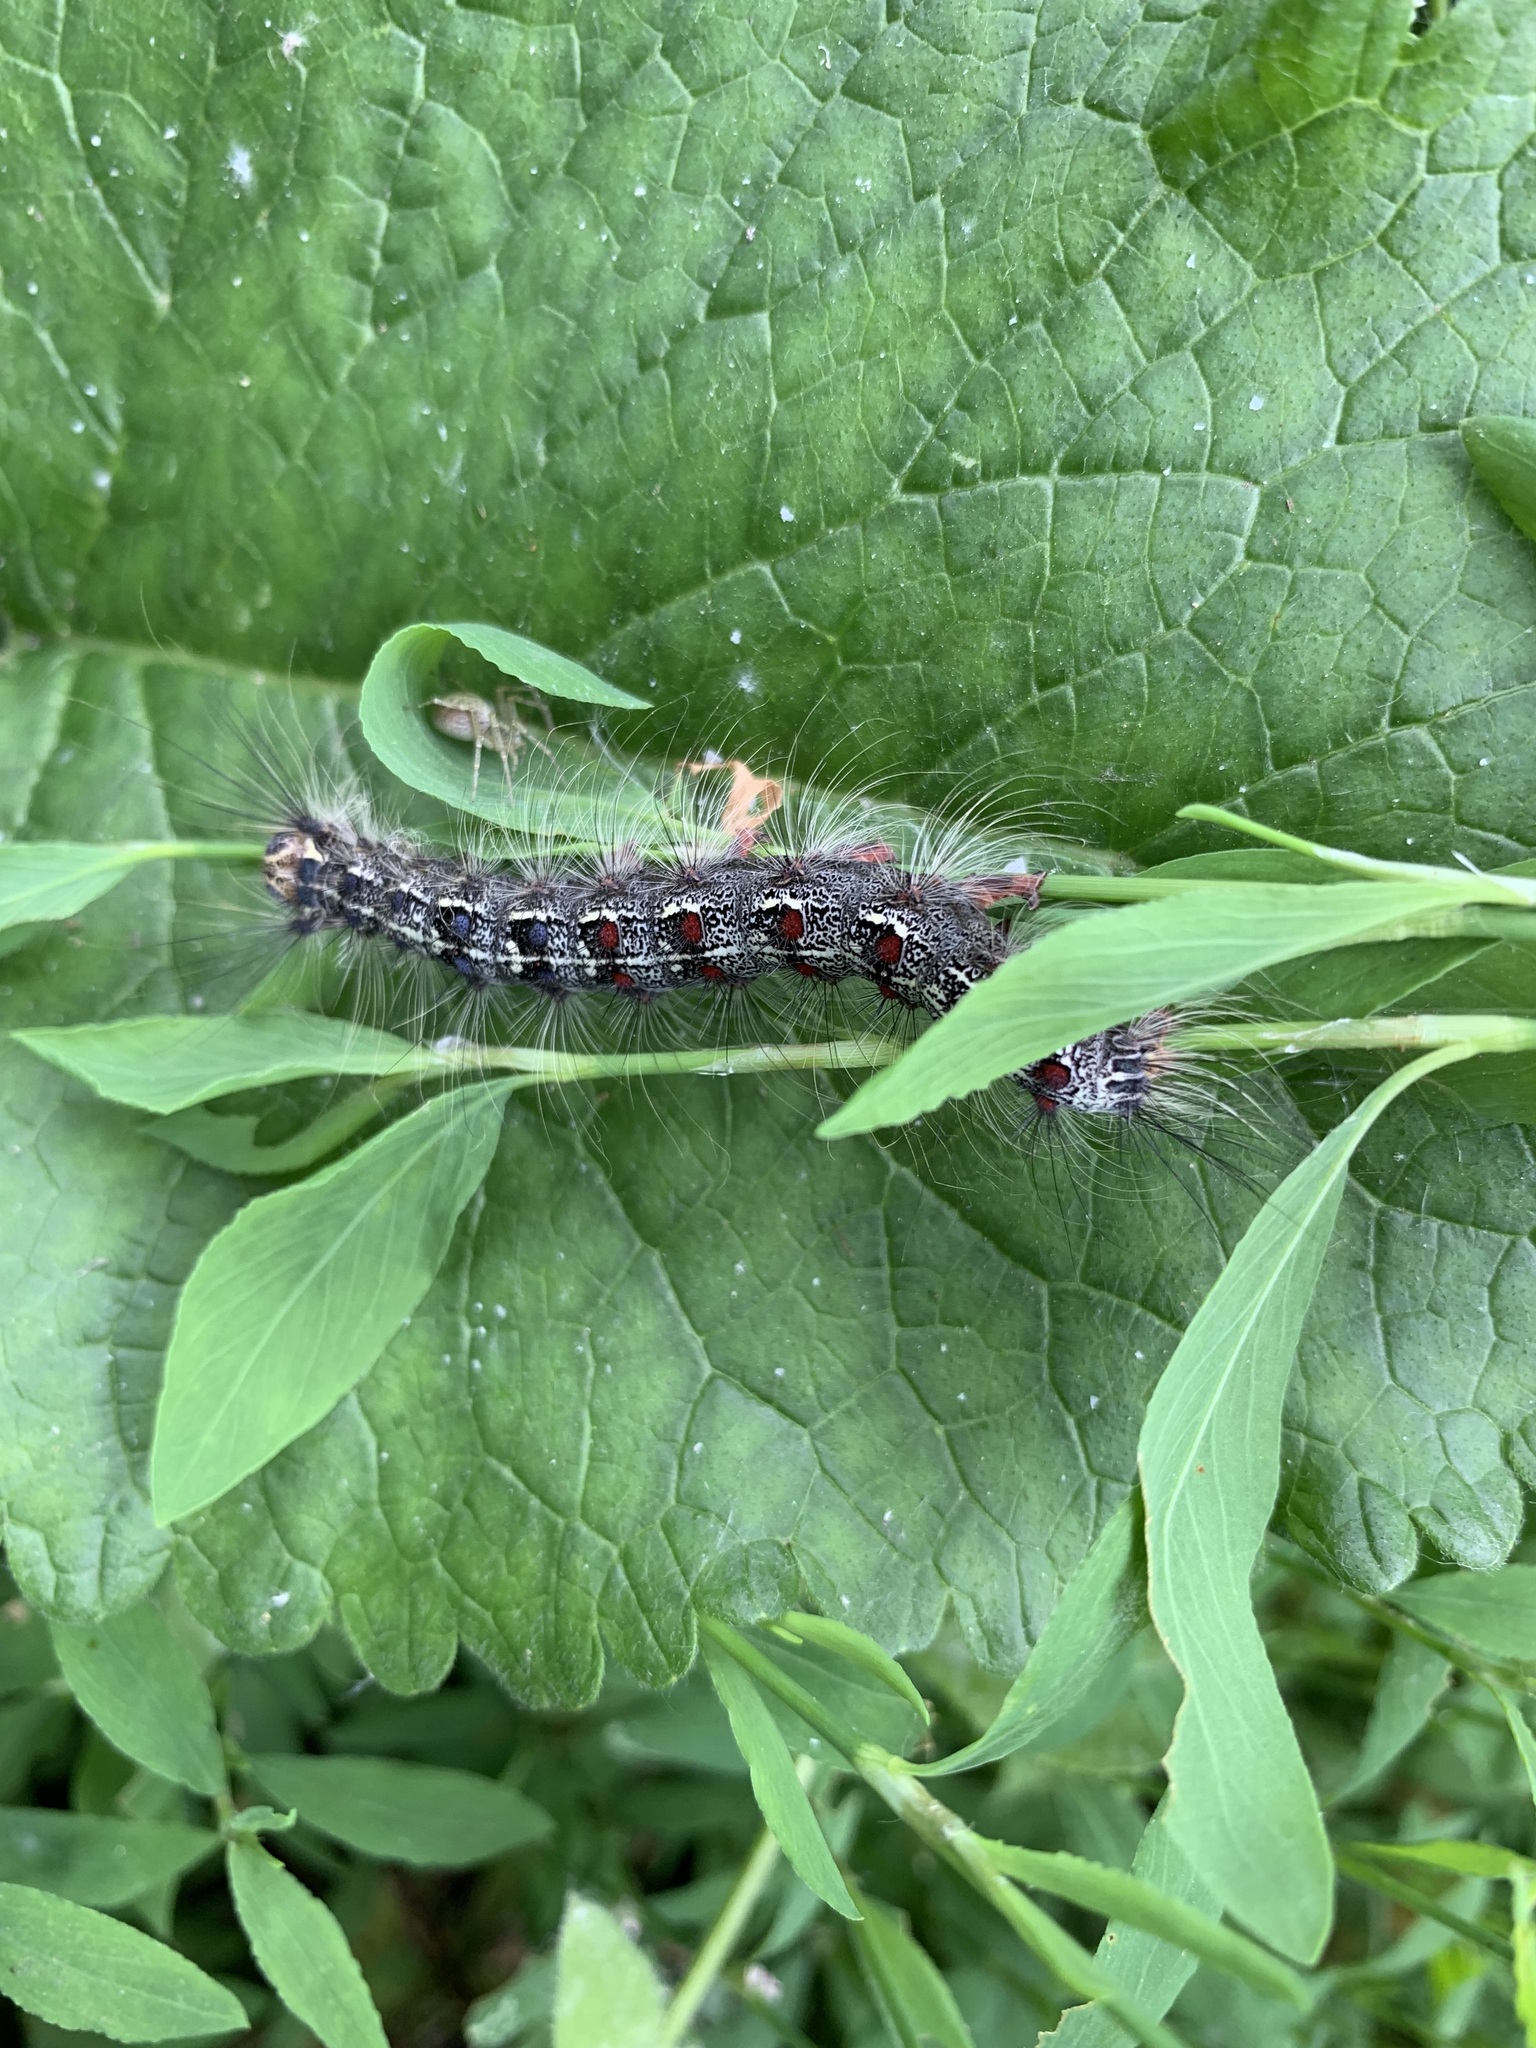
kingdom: Animalia
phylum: Arthropoda
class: Insecta
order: Lepidoptera
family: Erebidae
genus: Lymantria
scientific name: Lymantria dispar
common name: Gypsy moth
